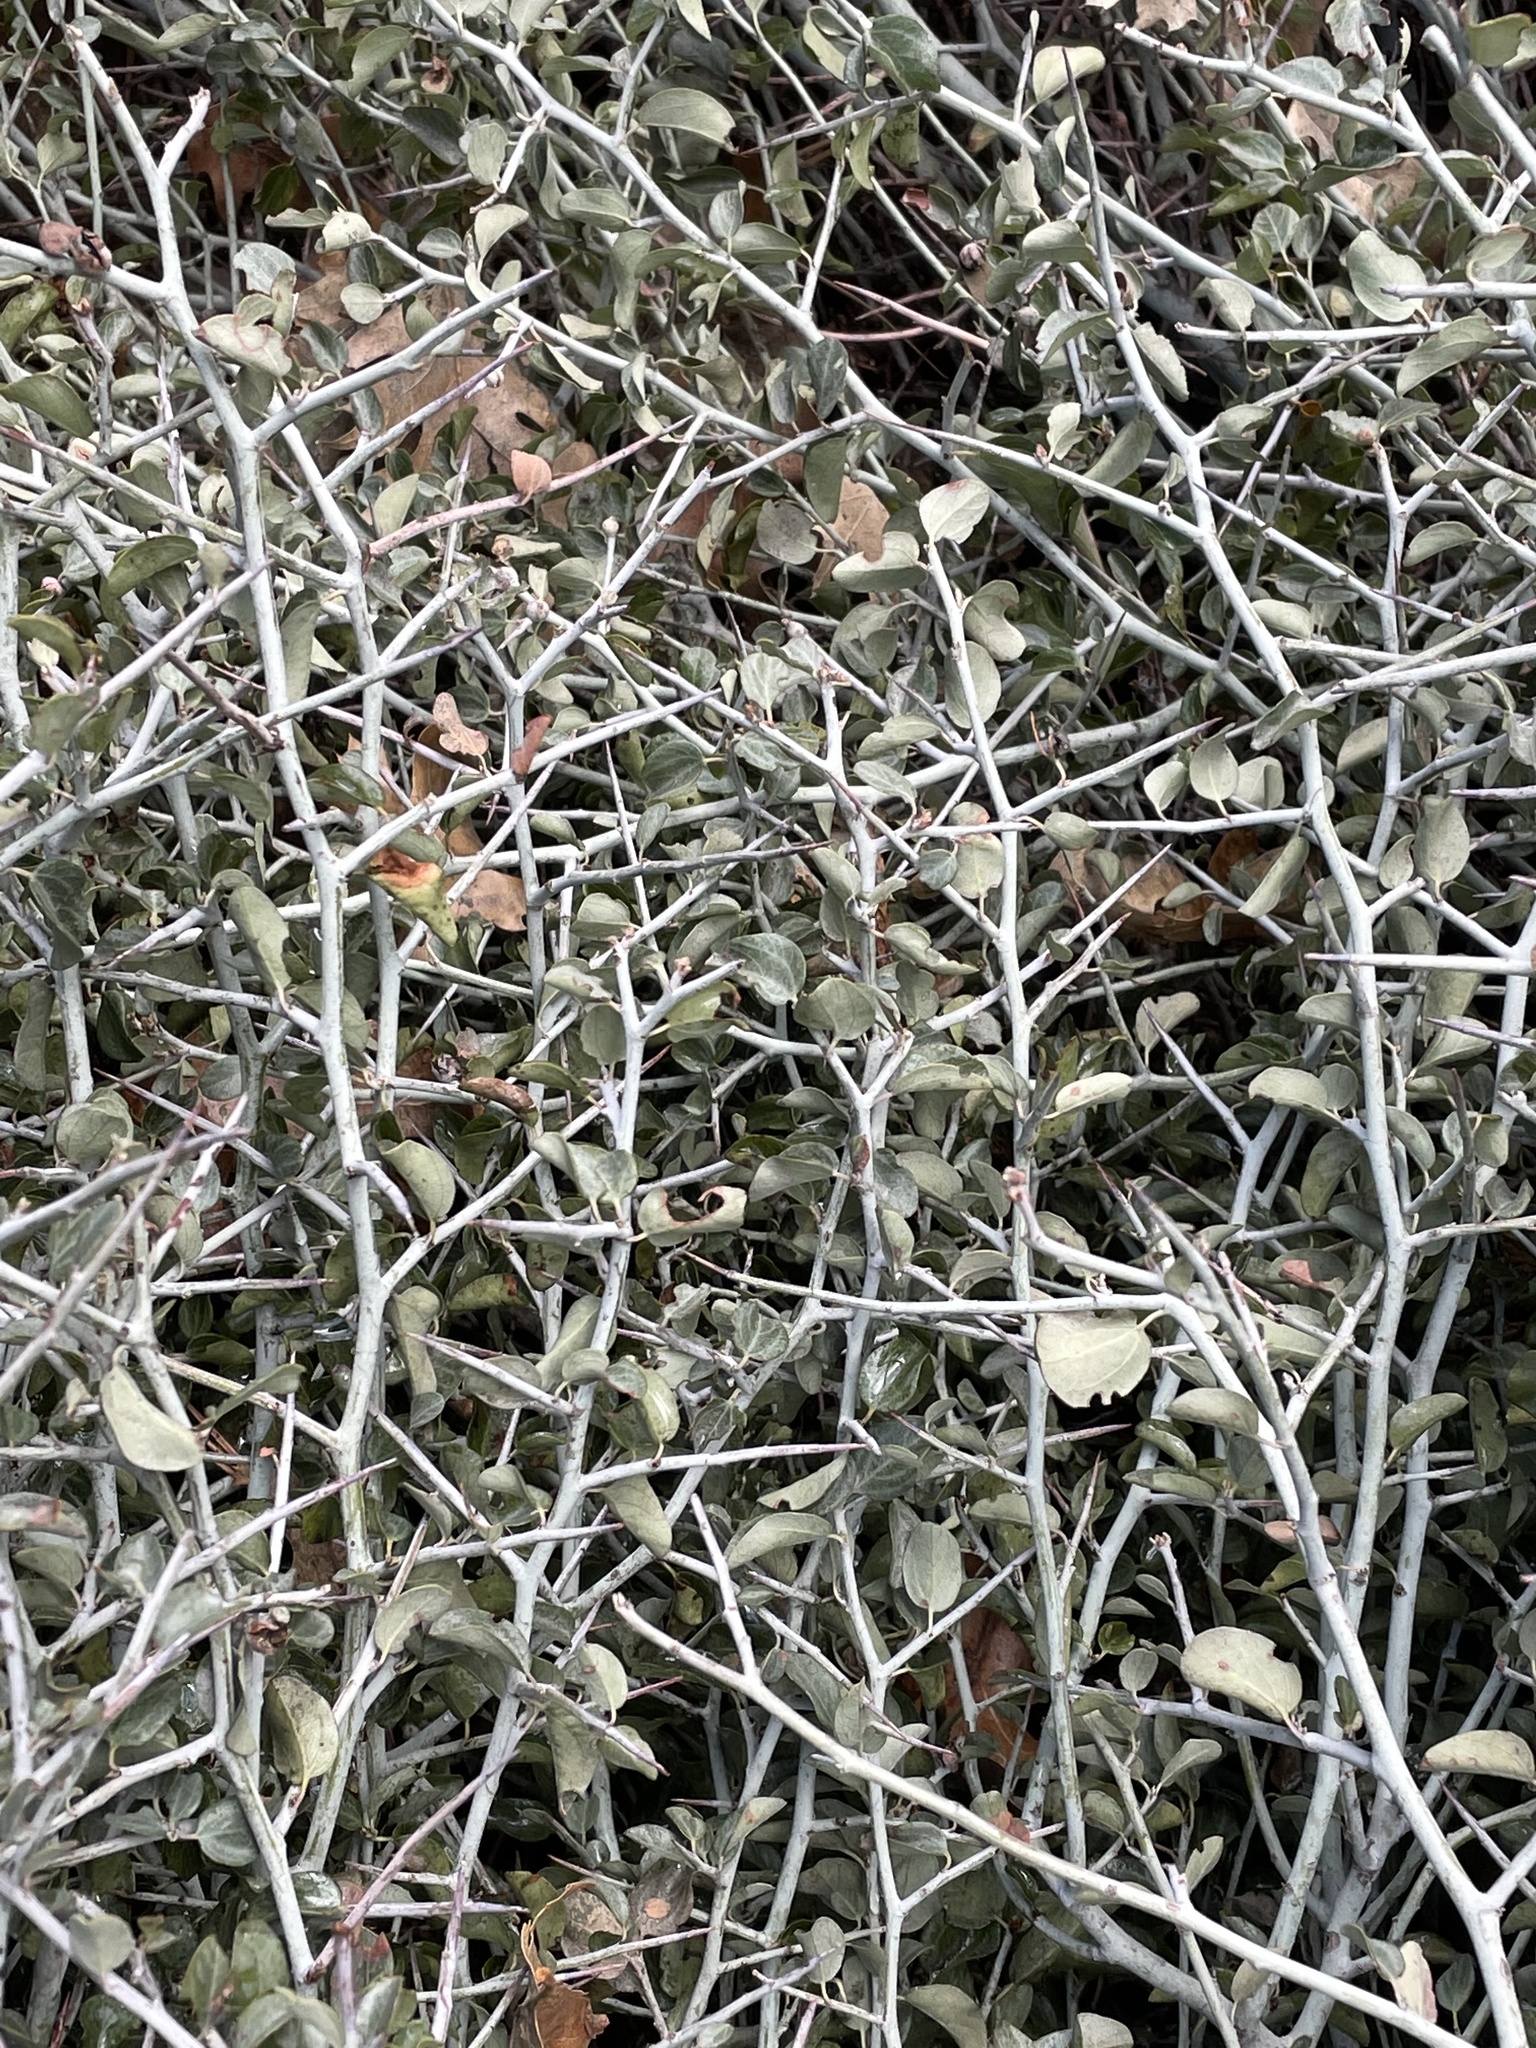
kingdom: Plantae
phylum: Tracheophyta
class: Magnoliopsida
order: Rosales
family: Rhamnaceae
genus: Ceanothus
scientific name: Ceanothus cordulatus
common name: Mountain whitethorn
